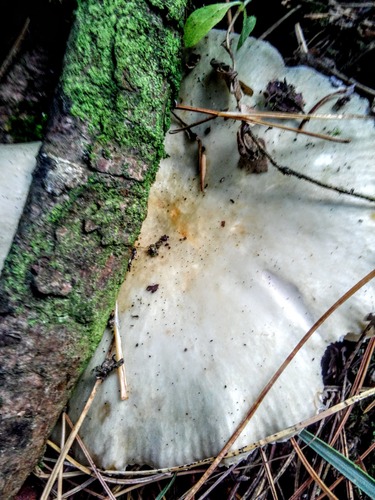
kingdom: Fungi
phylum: Basidiomycota
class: Agaricomycetes
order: Russulales
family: Russulaceae
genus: Russula
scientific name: Russula
